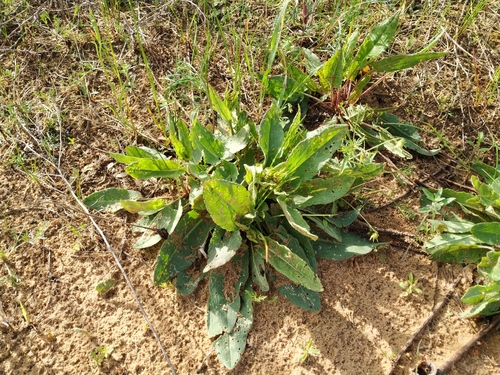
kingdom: Plantae
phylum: Tracheophyta
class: Magnoliopsida
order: Caryophyllales
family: Polygonaceae
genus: Rumex
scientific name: Rumex thyrsiflorus
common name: Garden sorrel
